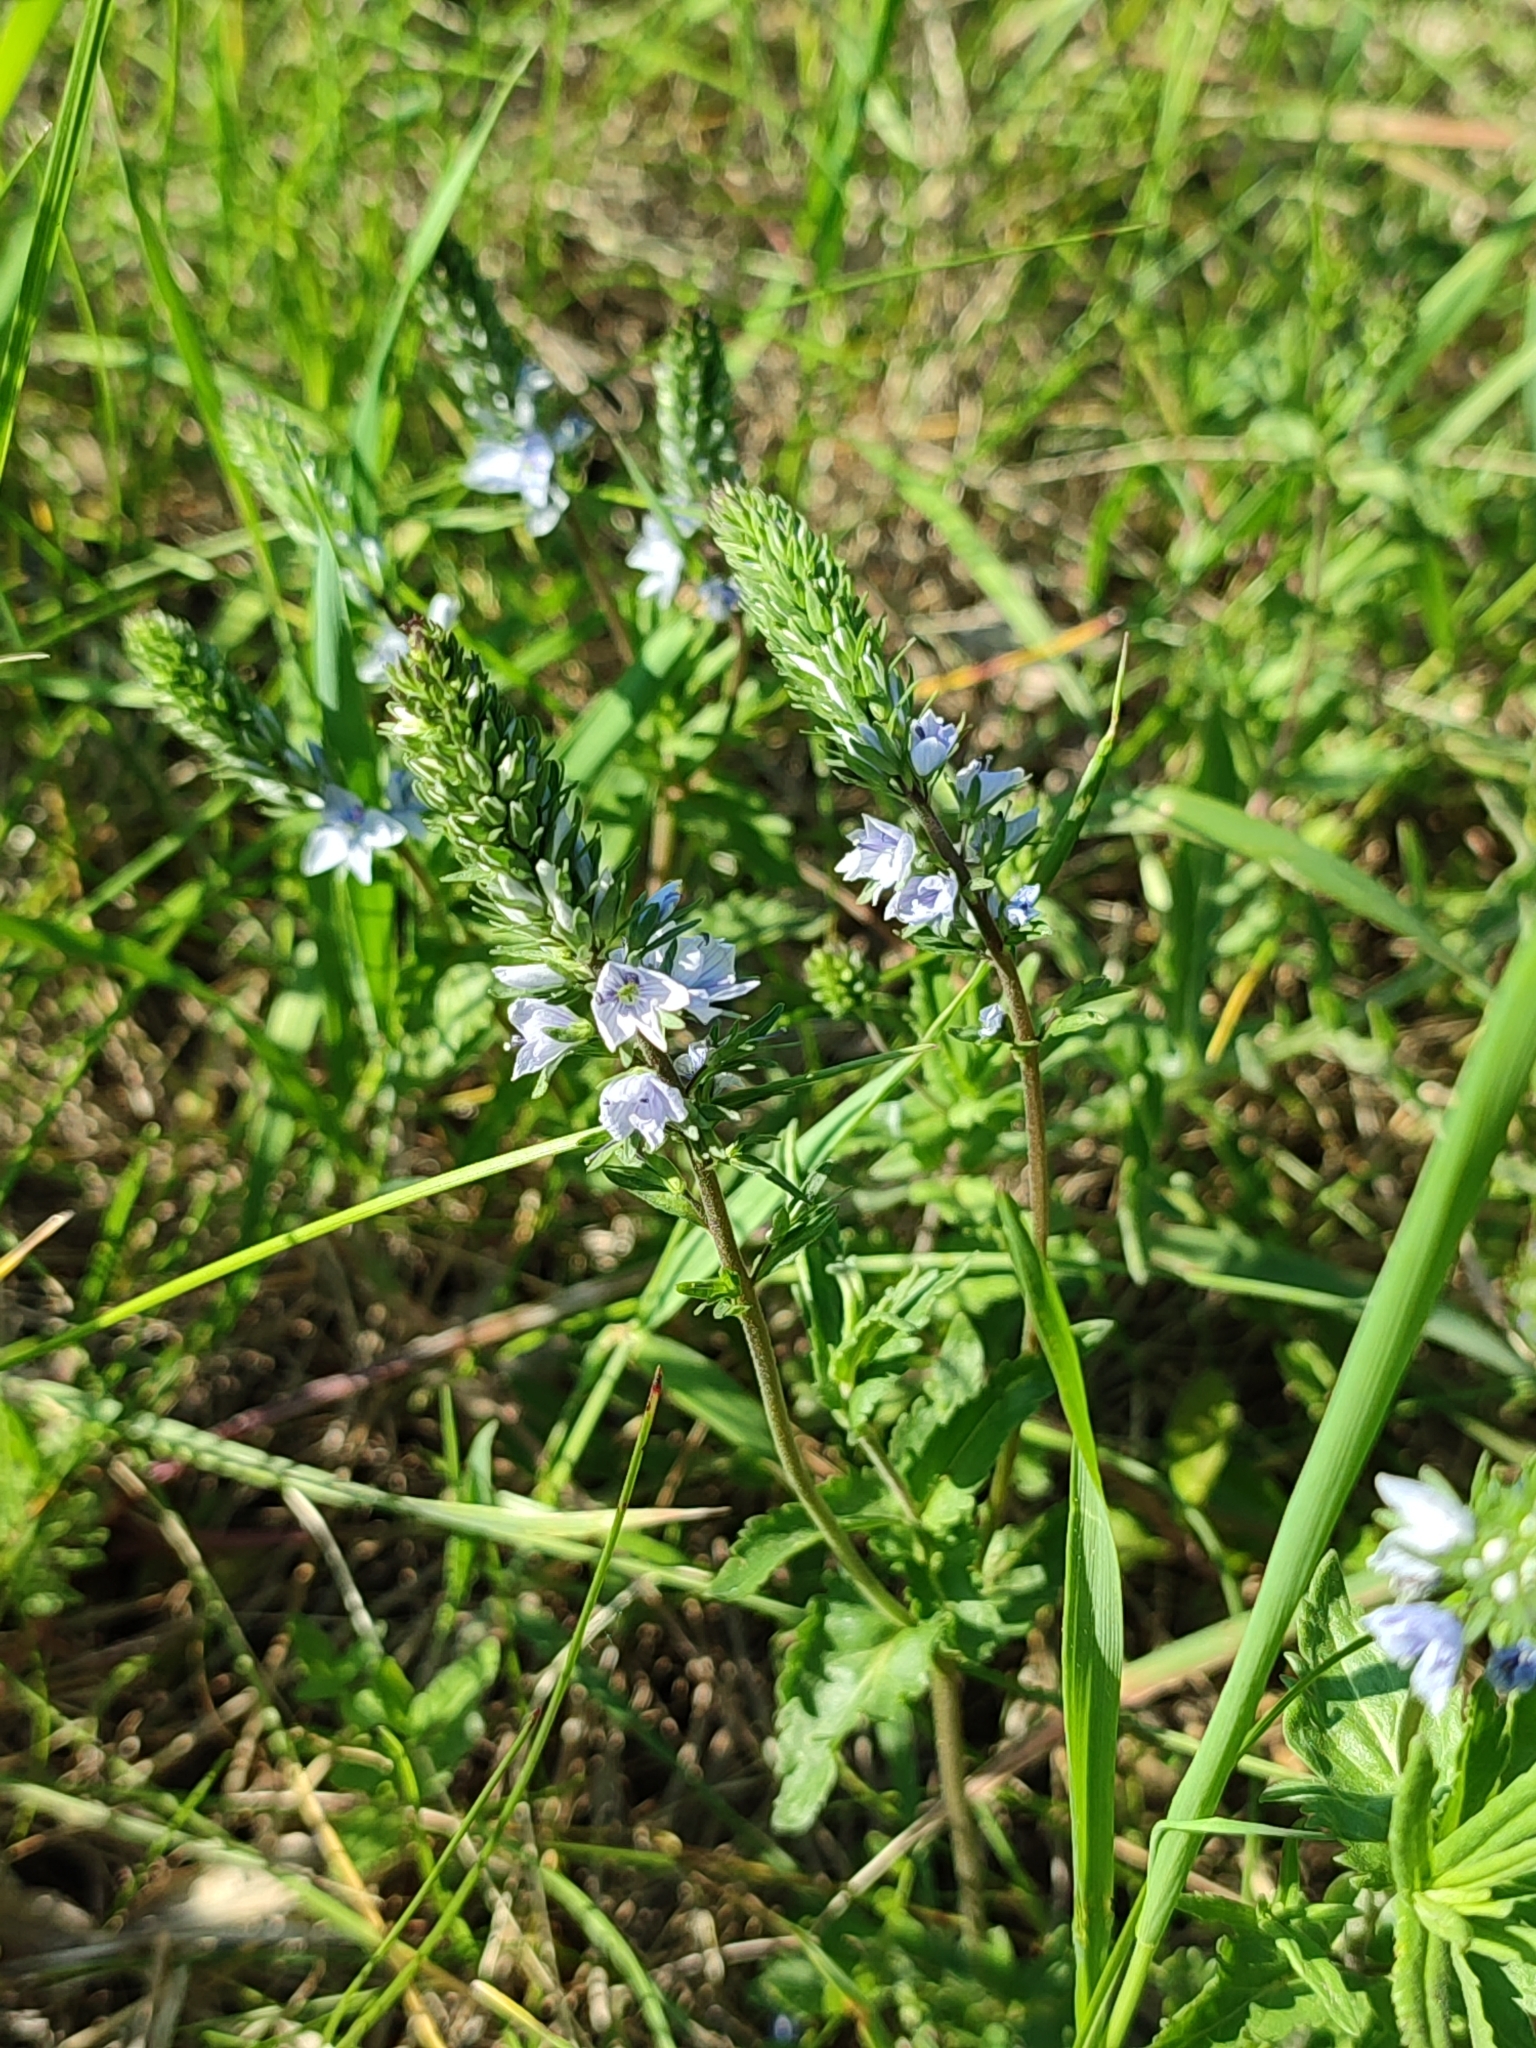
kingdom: Plantae
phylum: Tracheophyta
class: Magnoliopsida
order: Lamiales
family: Plantaginaceae
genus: Veronica
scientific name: Veronica prostrata
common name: Prostrate speedwell
